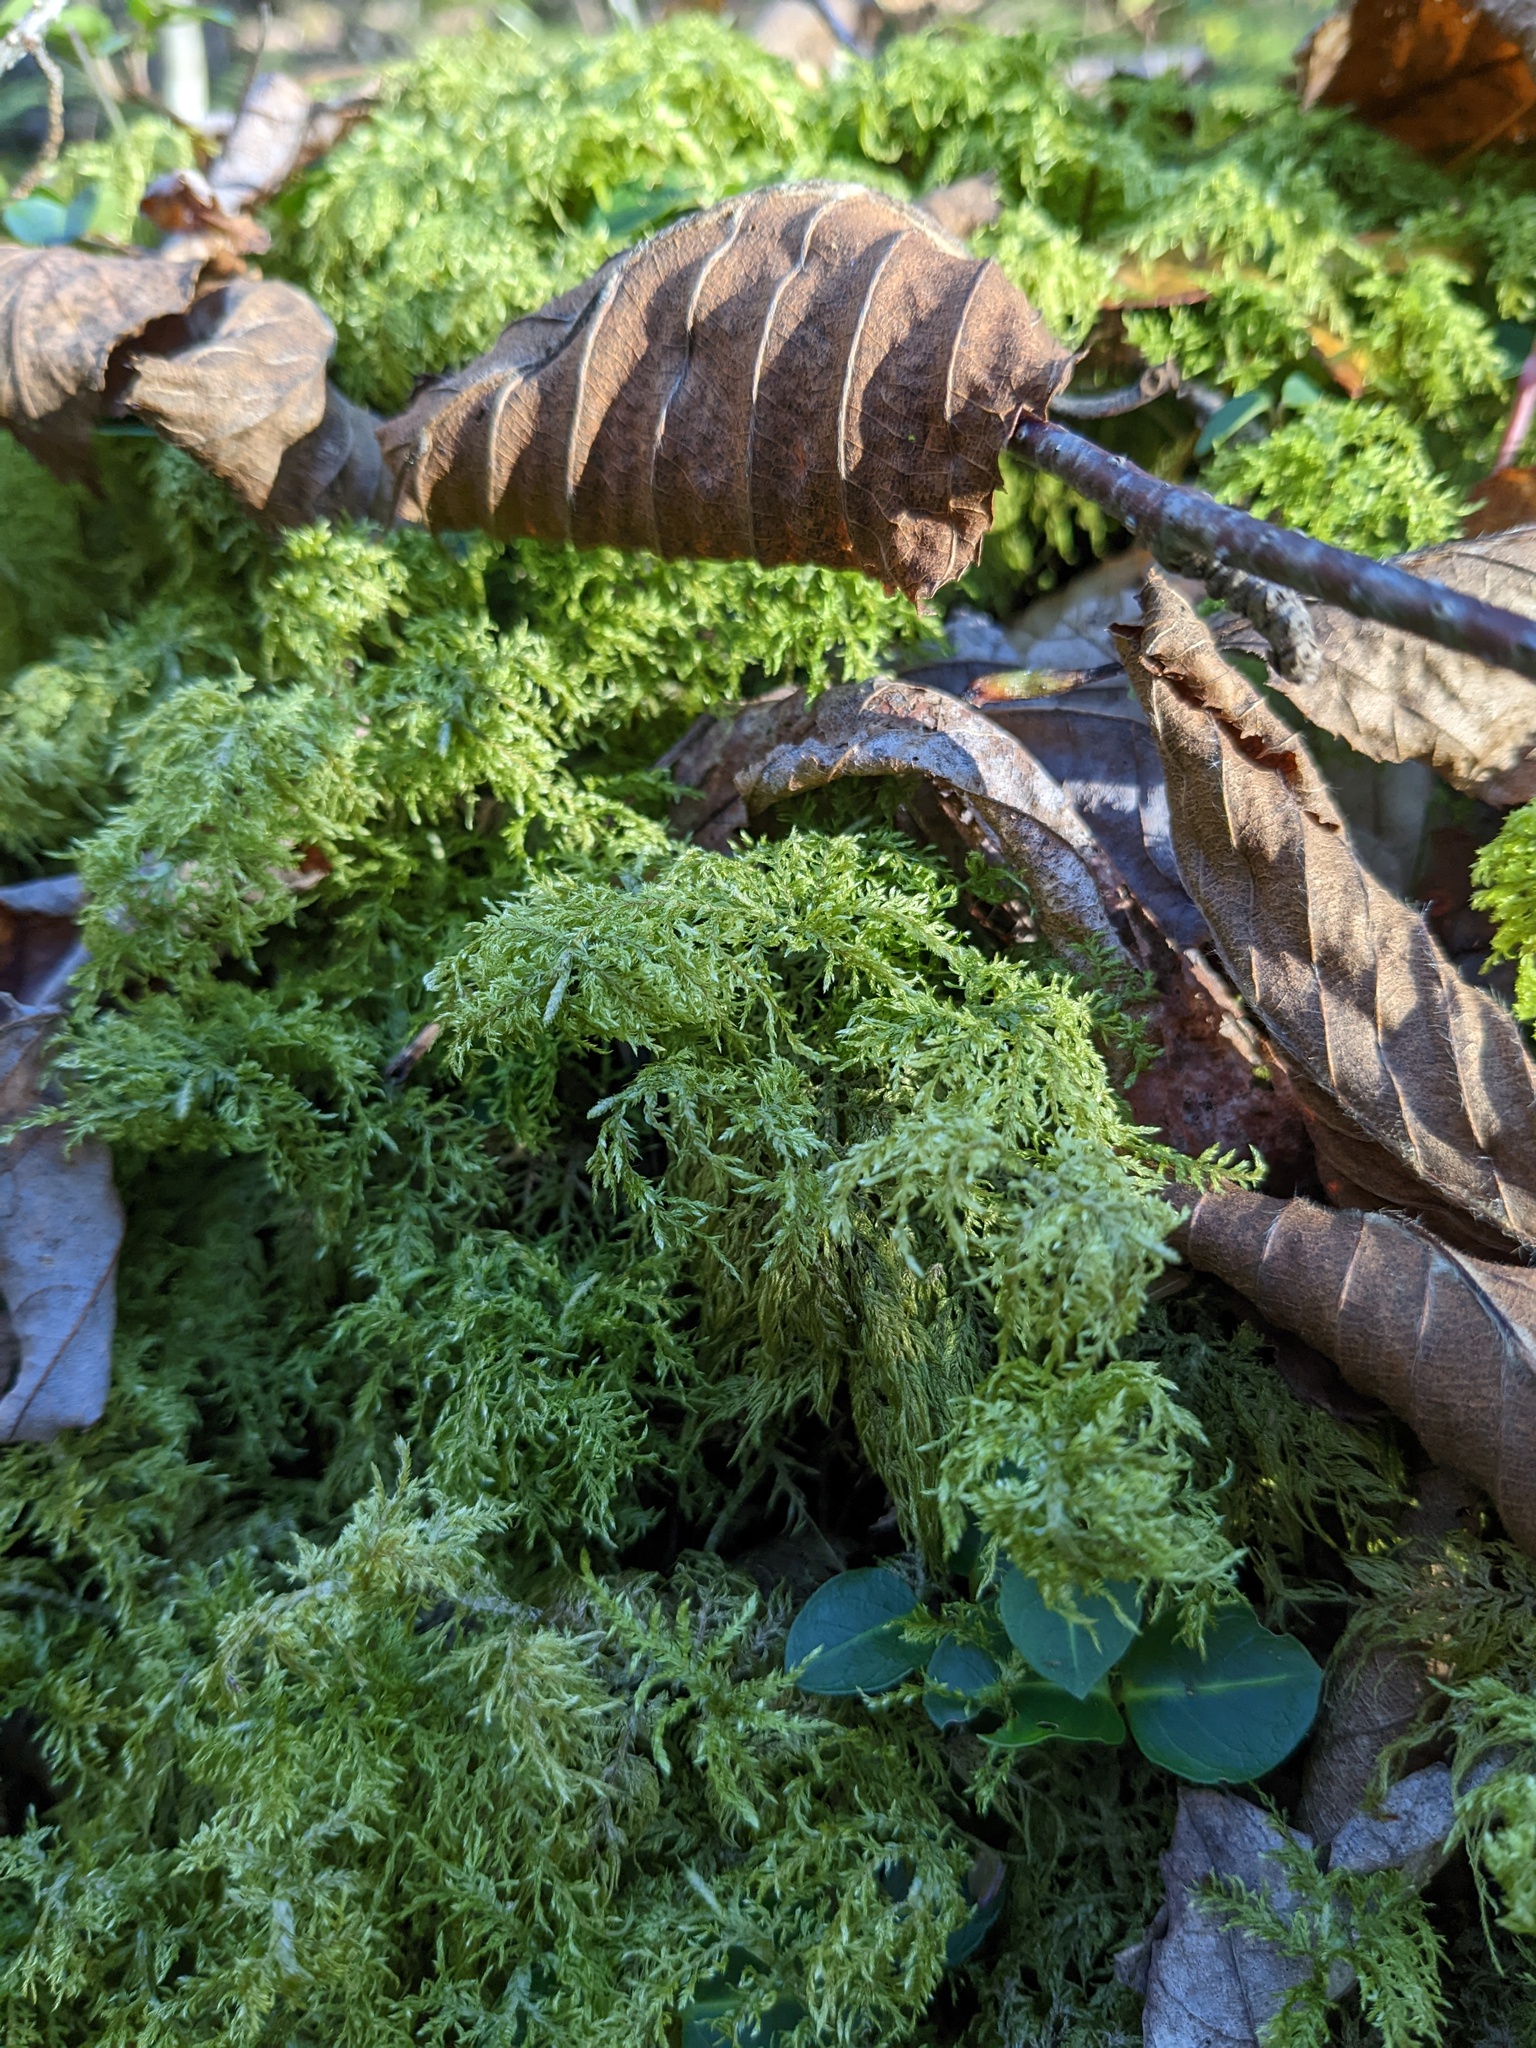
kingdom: Plantae
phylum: Bryophyta
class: Bryopsida
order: Hypnales
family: Hylocomiaceae
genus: Hylocomium
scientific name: Hylocomium splendens
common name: Stairstep moss
